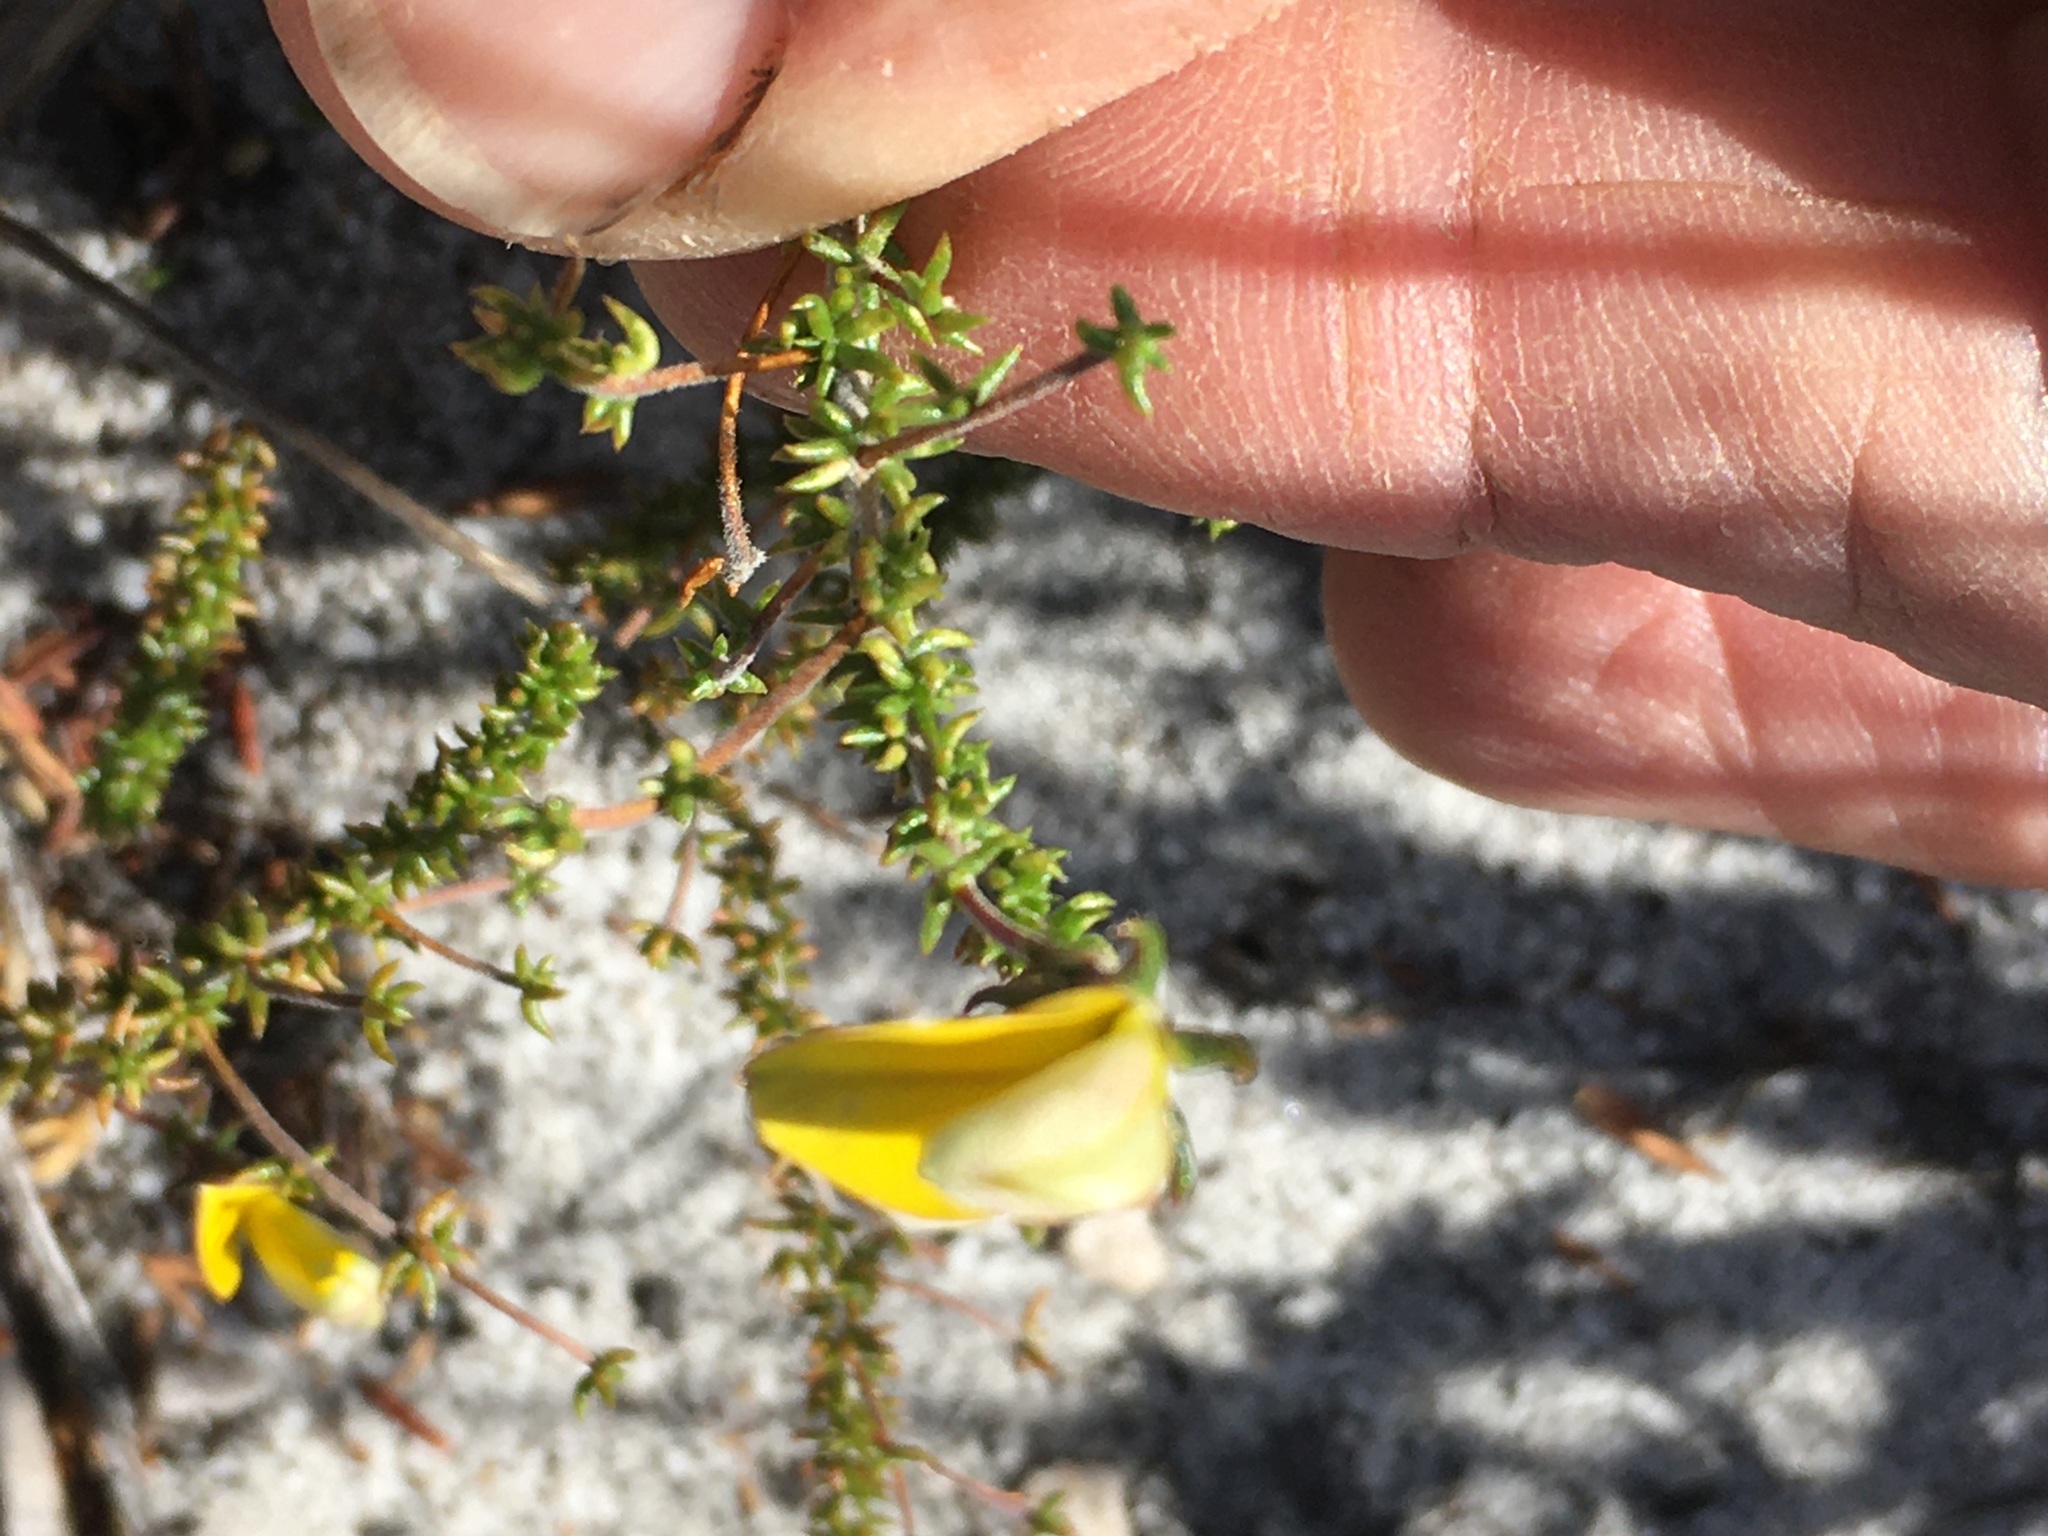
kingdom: Plantae
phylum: Tracheophyta
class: Magnoliopsida
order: Fabales
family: Fabaceae
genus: Aspalathus
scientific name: Aspalathus serpens
